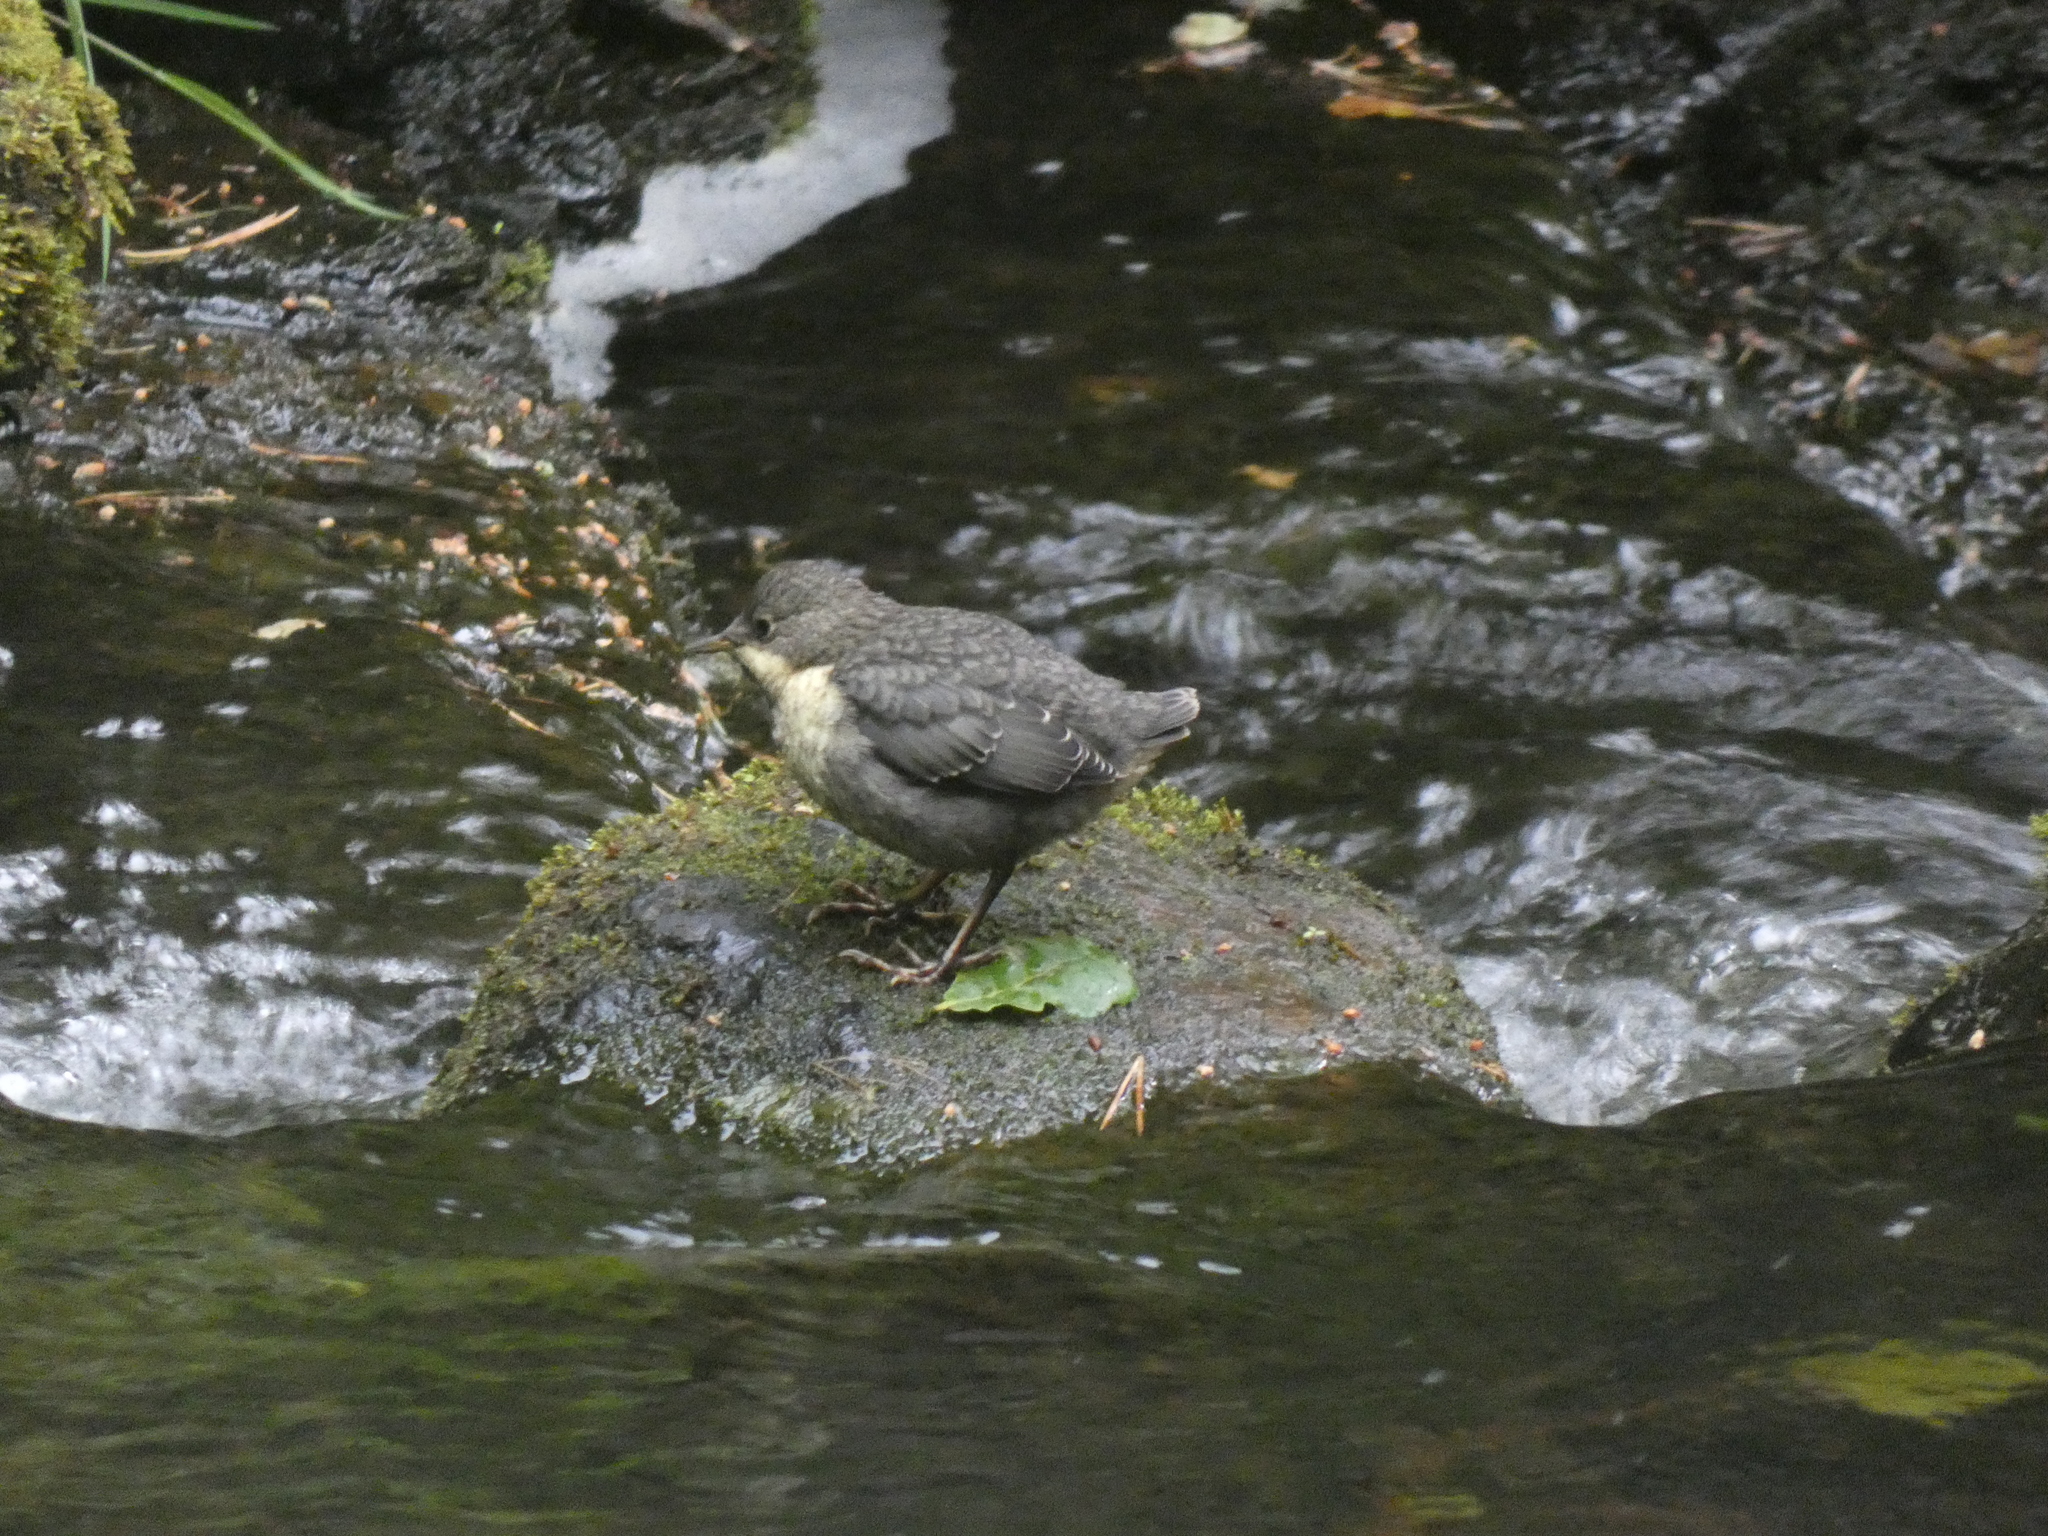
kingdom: Animalia
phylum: Chordata
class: Aves
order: Passeriformes
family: Cinclidae
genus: Cinclus
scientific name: Cinclus cinclus
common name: White-throated dipper
